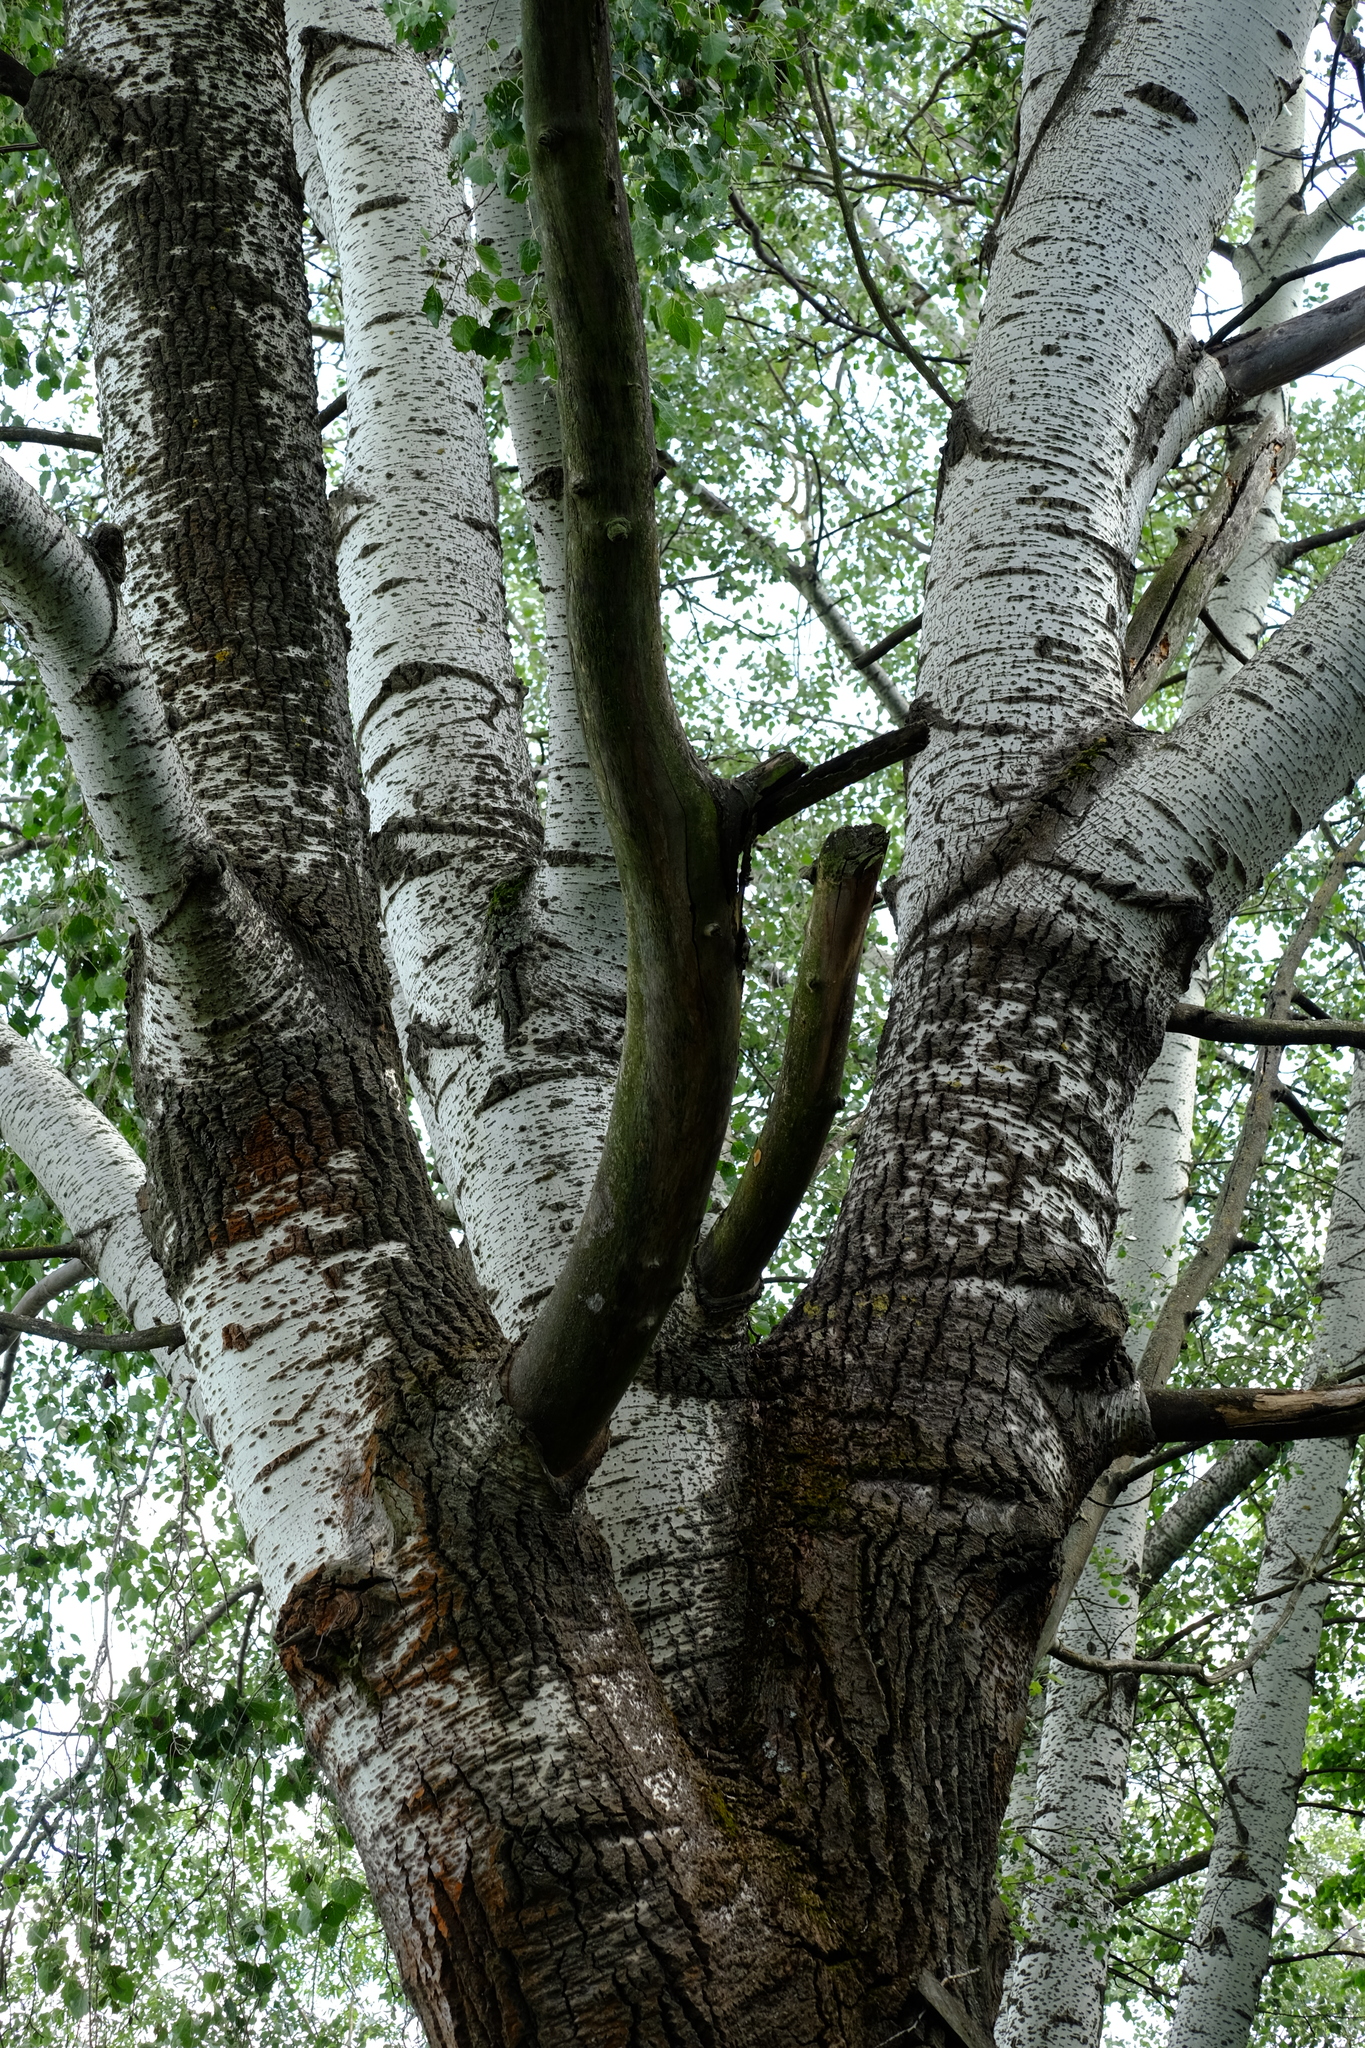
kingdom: Plantae
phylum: Tracheophyta
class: Magnoliopsida
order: Malpighiales
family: Salicaceae
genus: Populus
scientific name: Populus tremula
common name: European aspen
